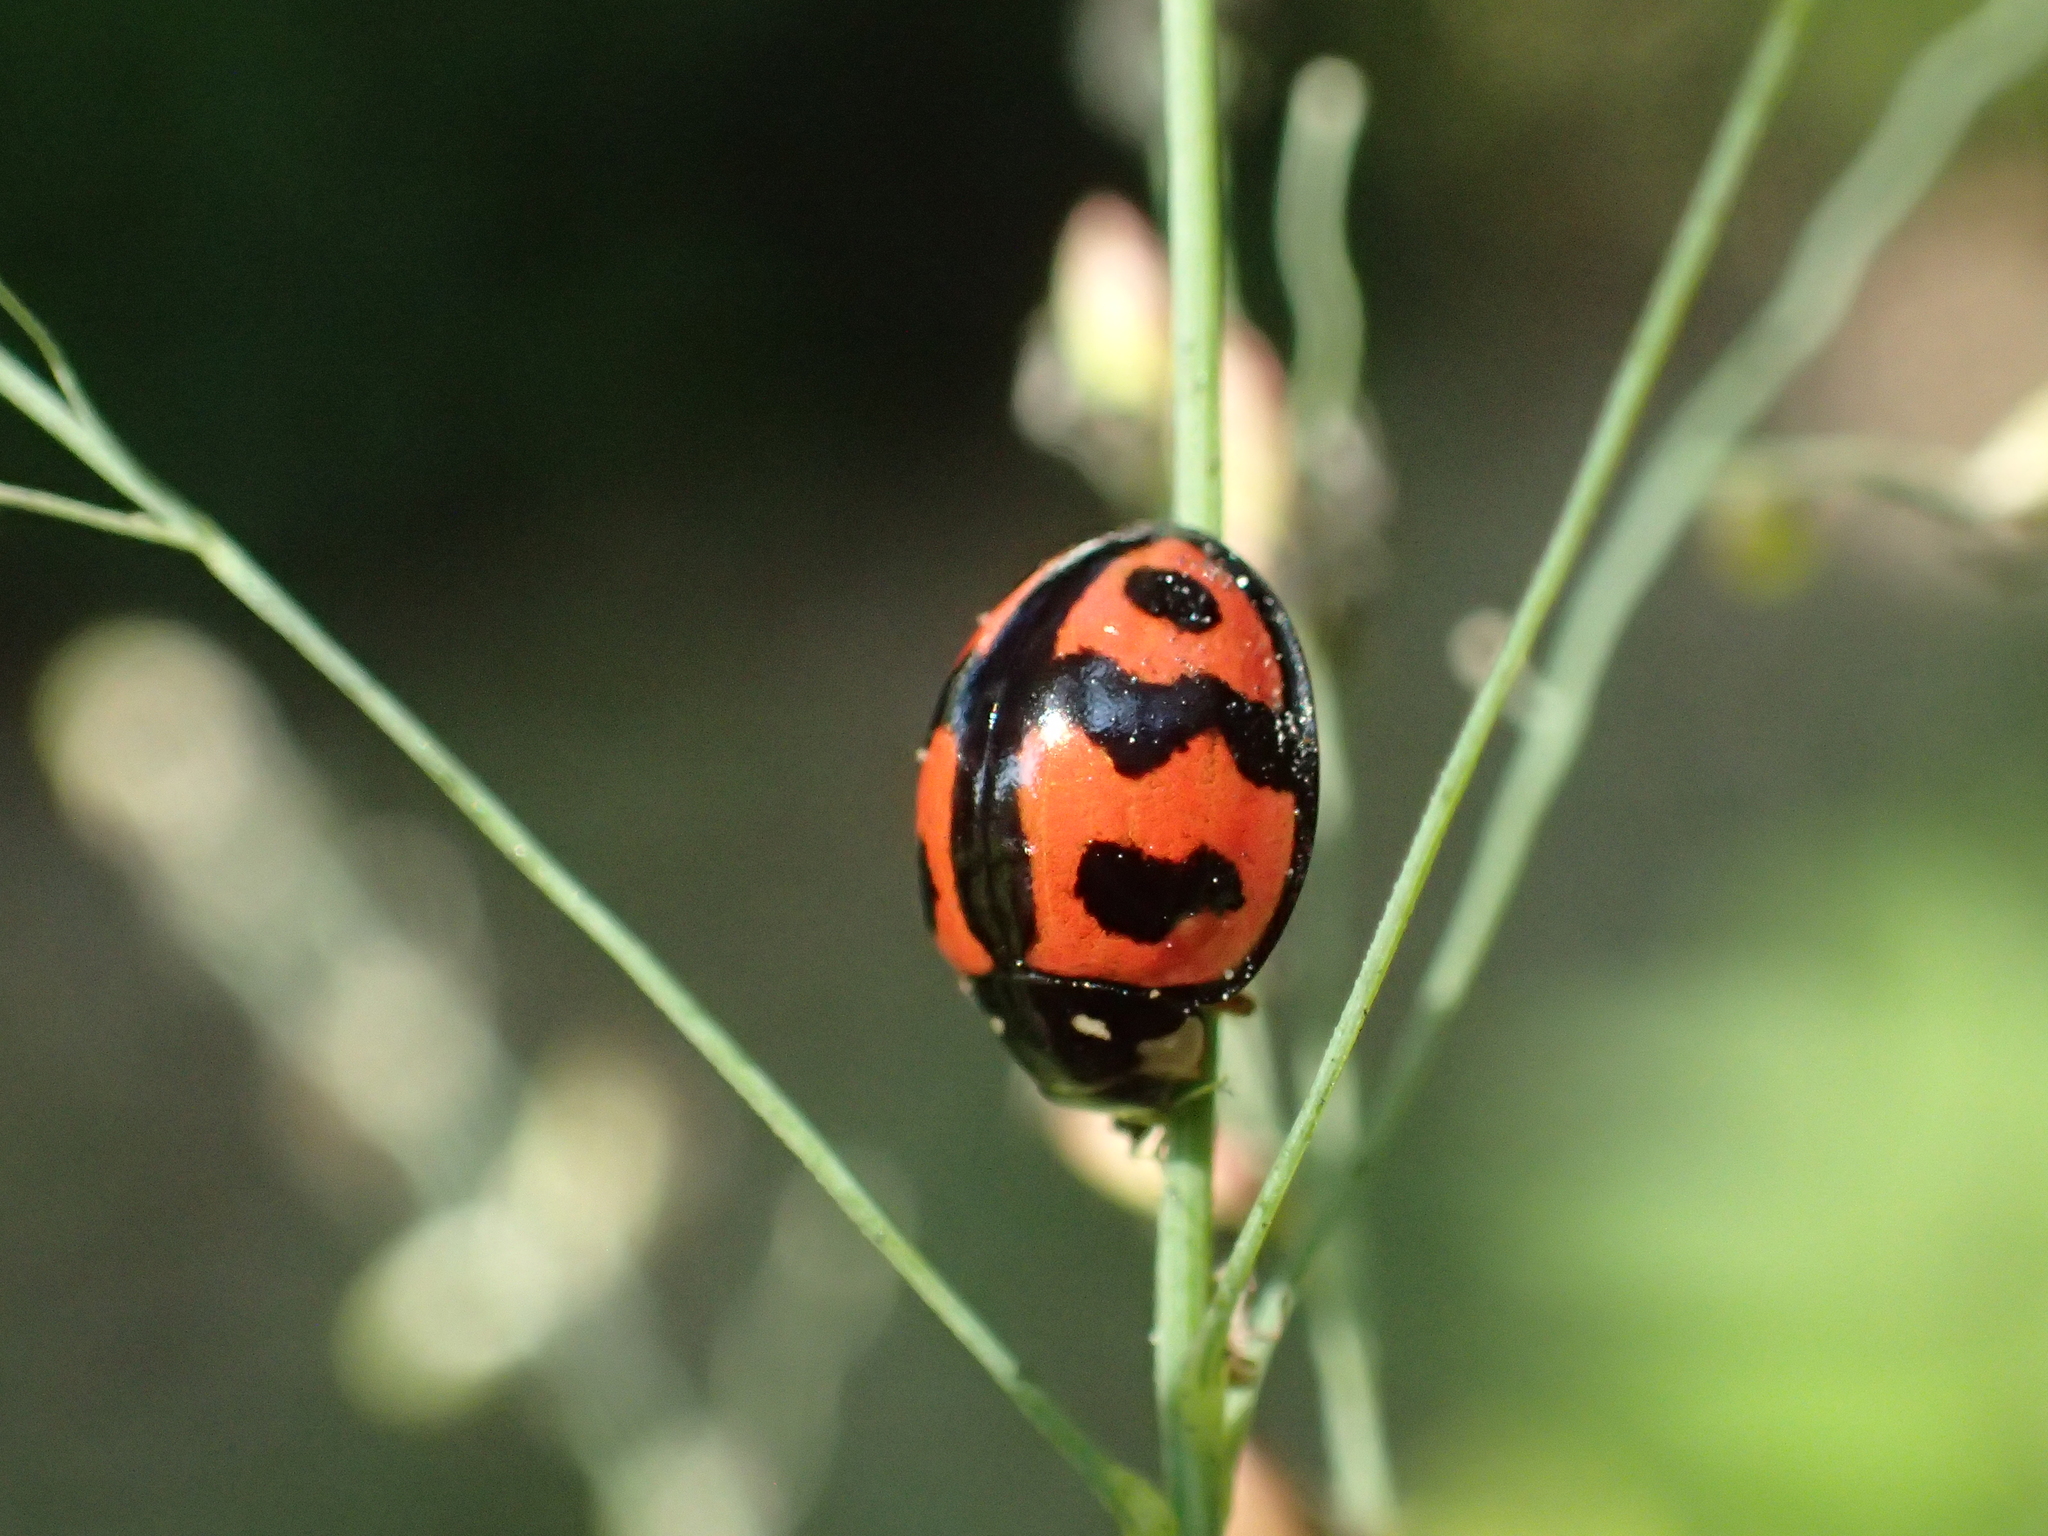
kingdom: Animalia
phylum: Arthropoda
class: Insecta
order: Coleoptera
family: Coccinellidae
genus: Cheilomenes
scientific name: Cheilomenes sexmaculata
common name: Ladybird beetle
